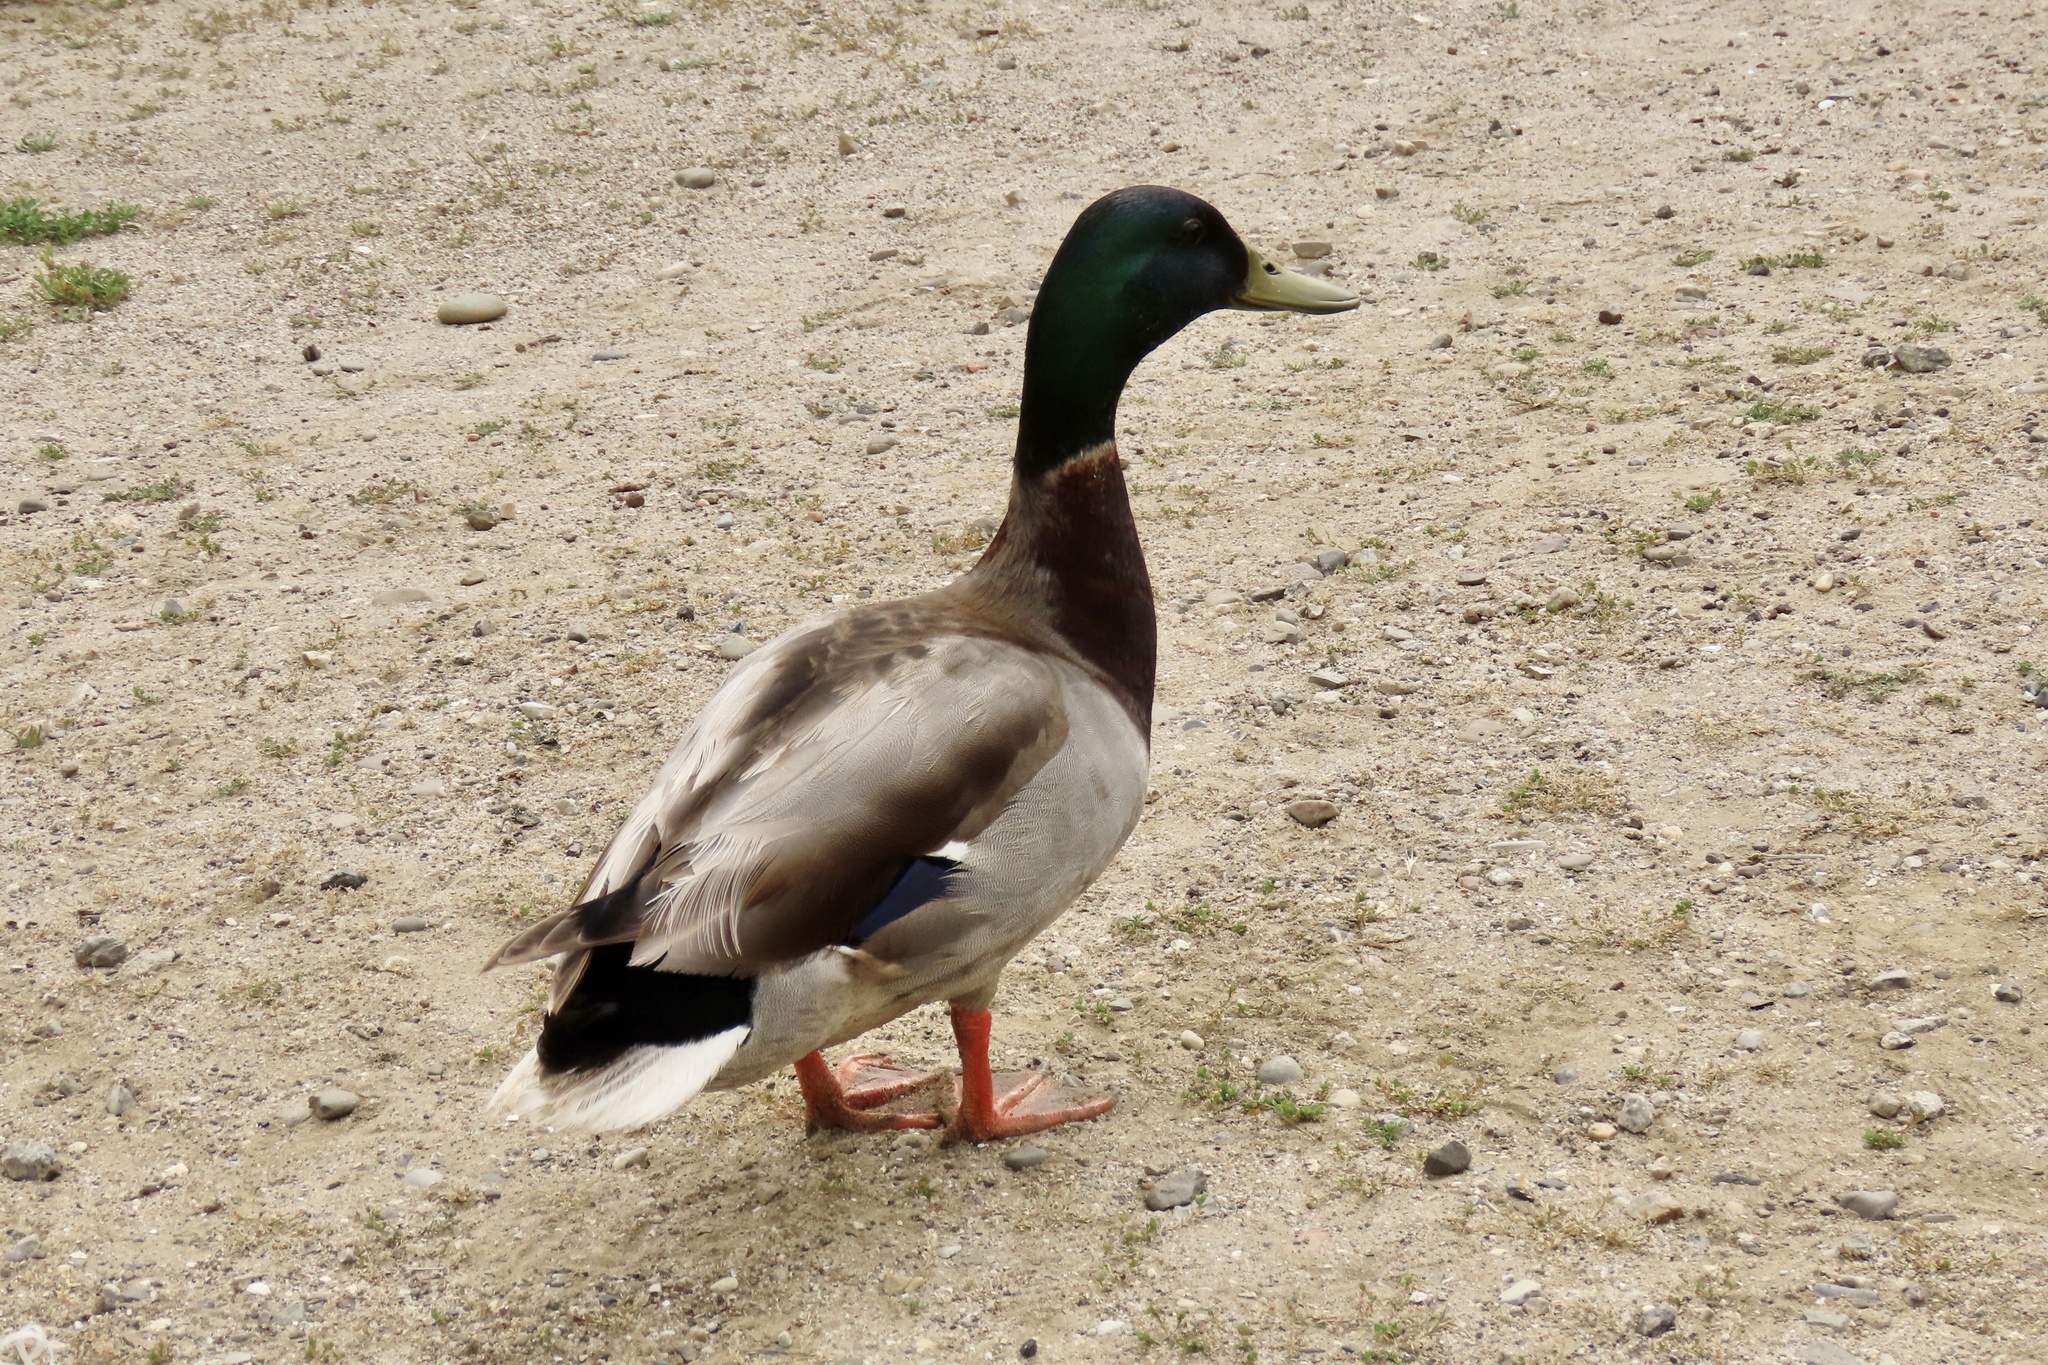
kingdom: Animalia
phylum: Chordata
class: Aves
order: Anseriformes
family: Anatidae
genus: Anas
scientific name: Anas platyrhynchos
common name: Mallard
